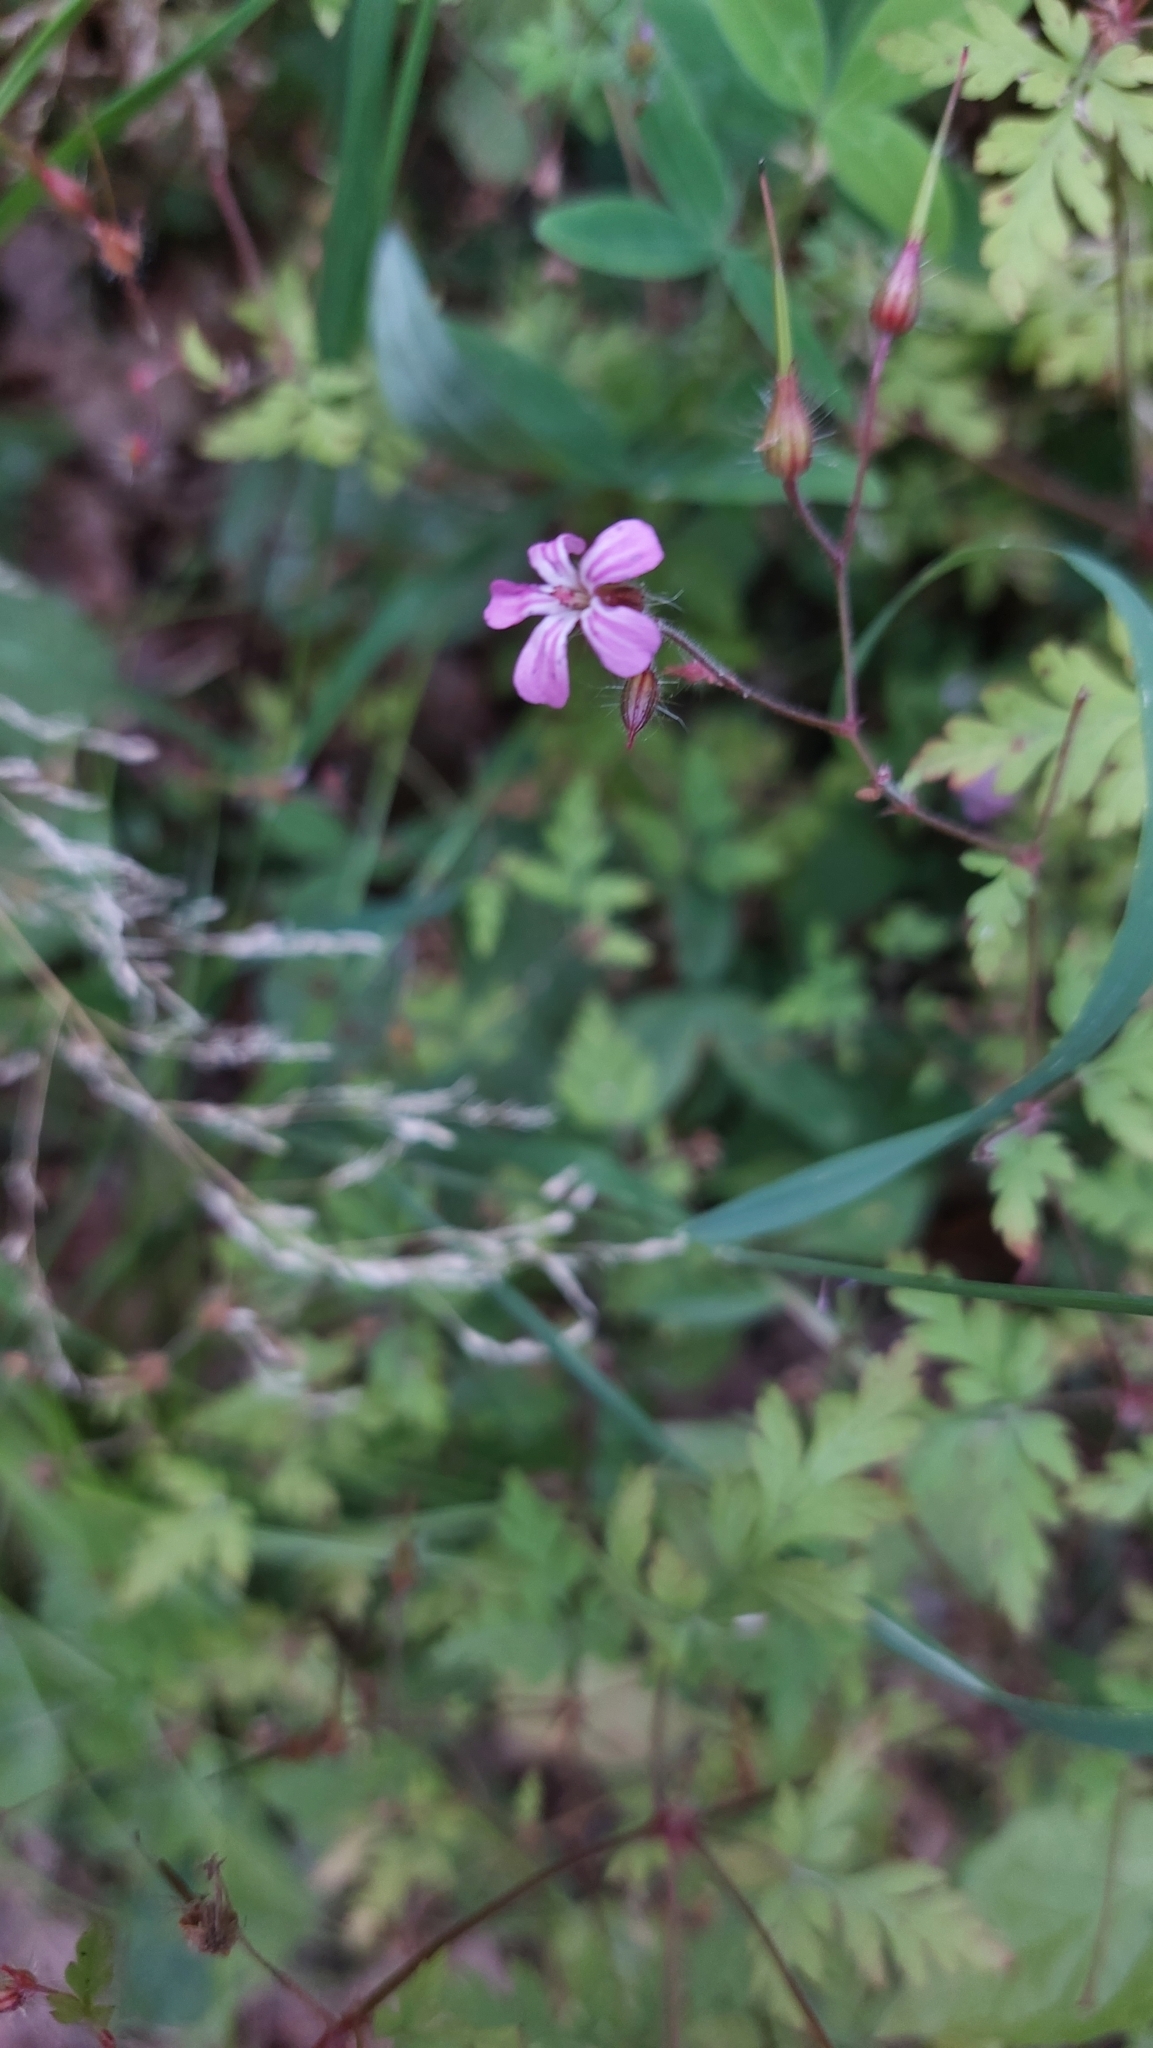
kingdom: Plantae
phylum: Tracheophyta
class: Magnoliopsida
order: Geraniales
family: Geraniaceae
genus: Geranium
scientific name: Geranium robertianum
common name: Herb-robert
